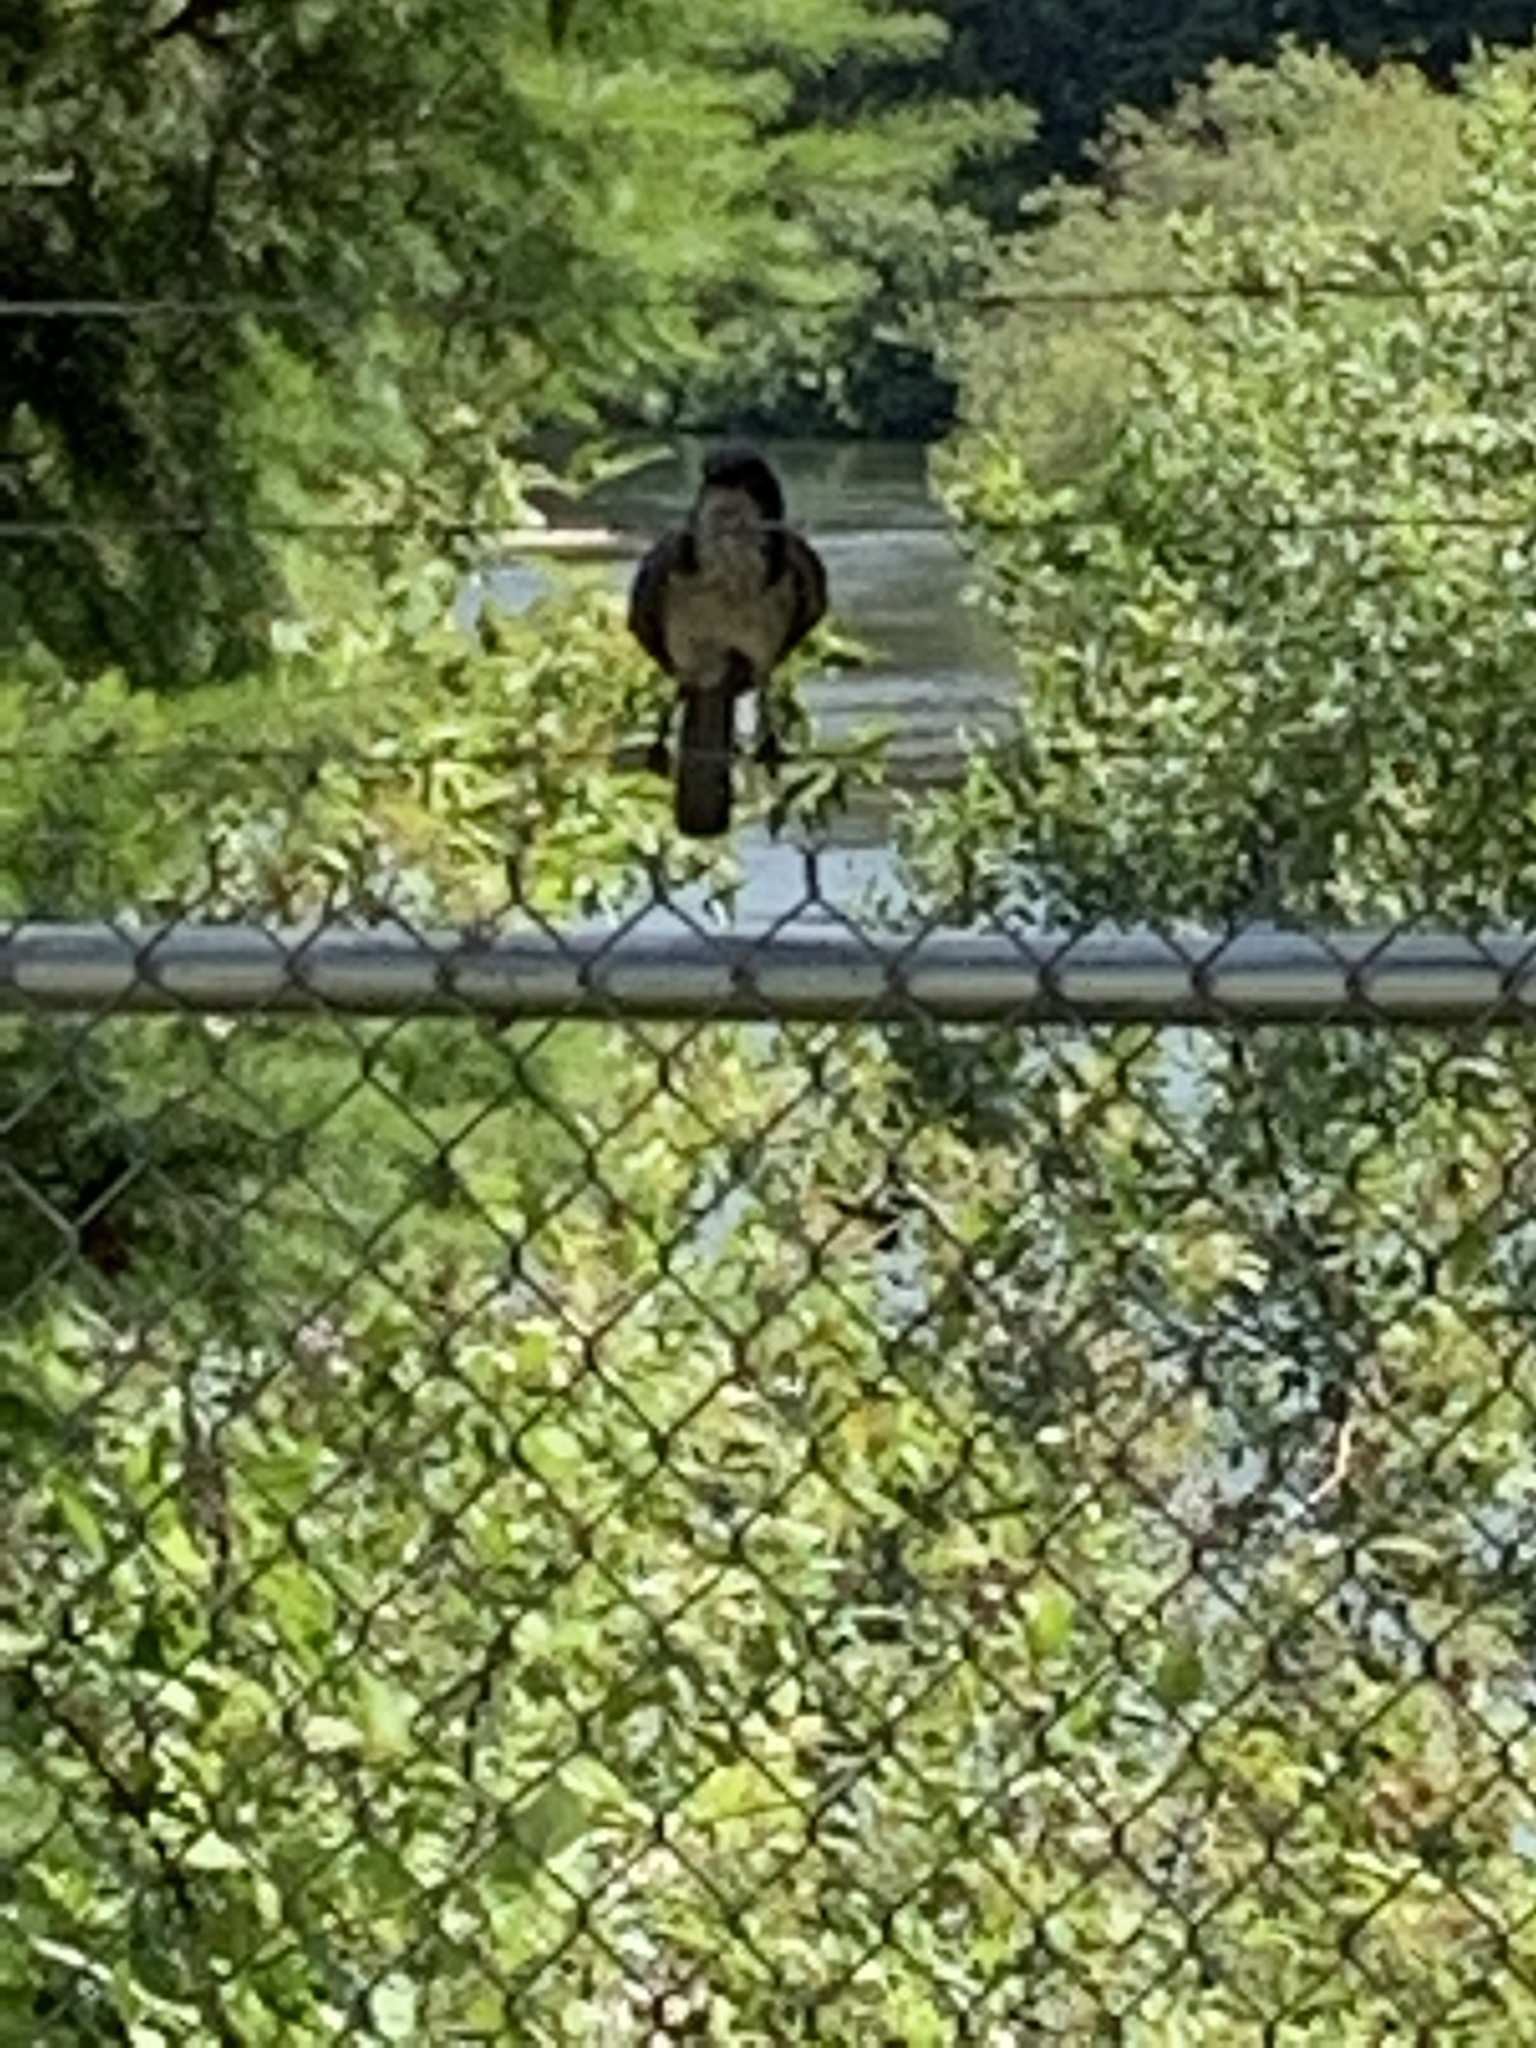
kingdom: Animalia
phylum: Chordata
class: Aves
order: Passeriformes
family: Corvidae
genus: Aphelocoma
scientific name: Aphelocoma californica
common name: California scrub-jay
